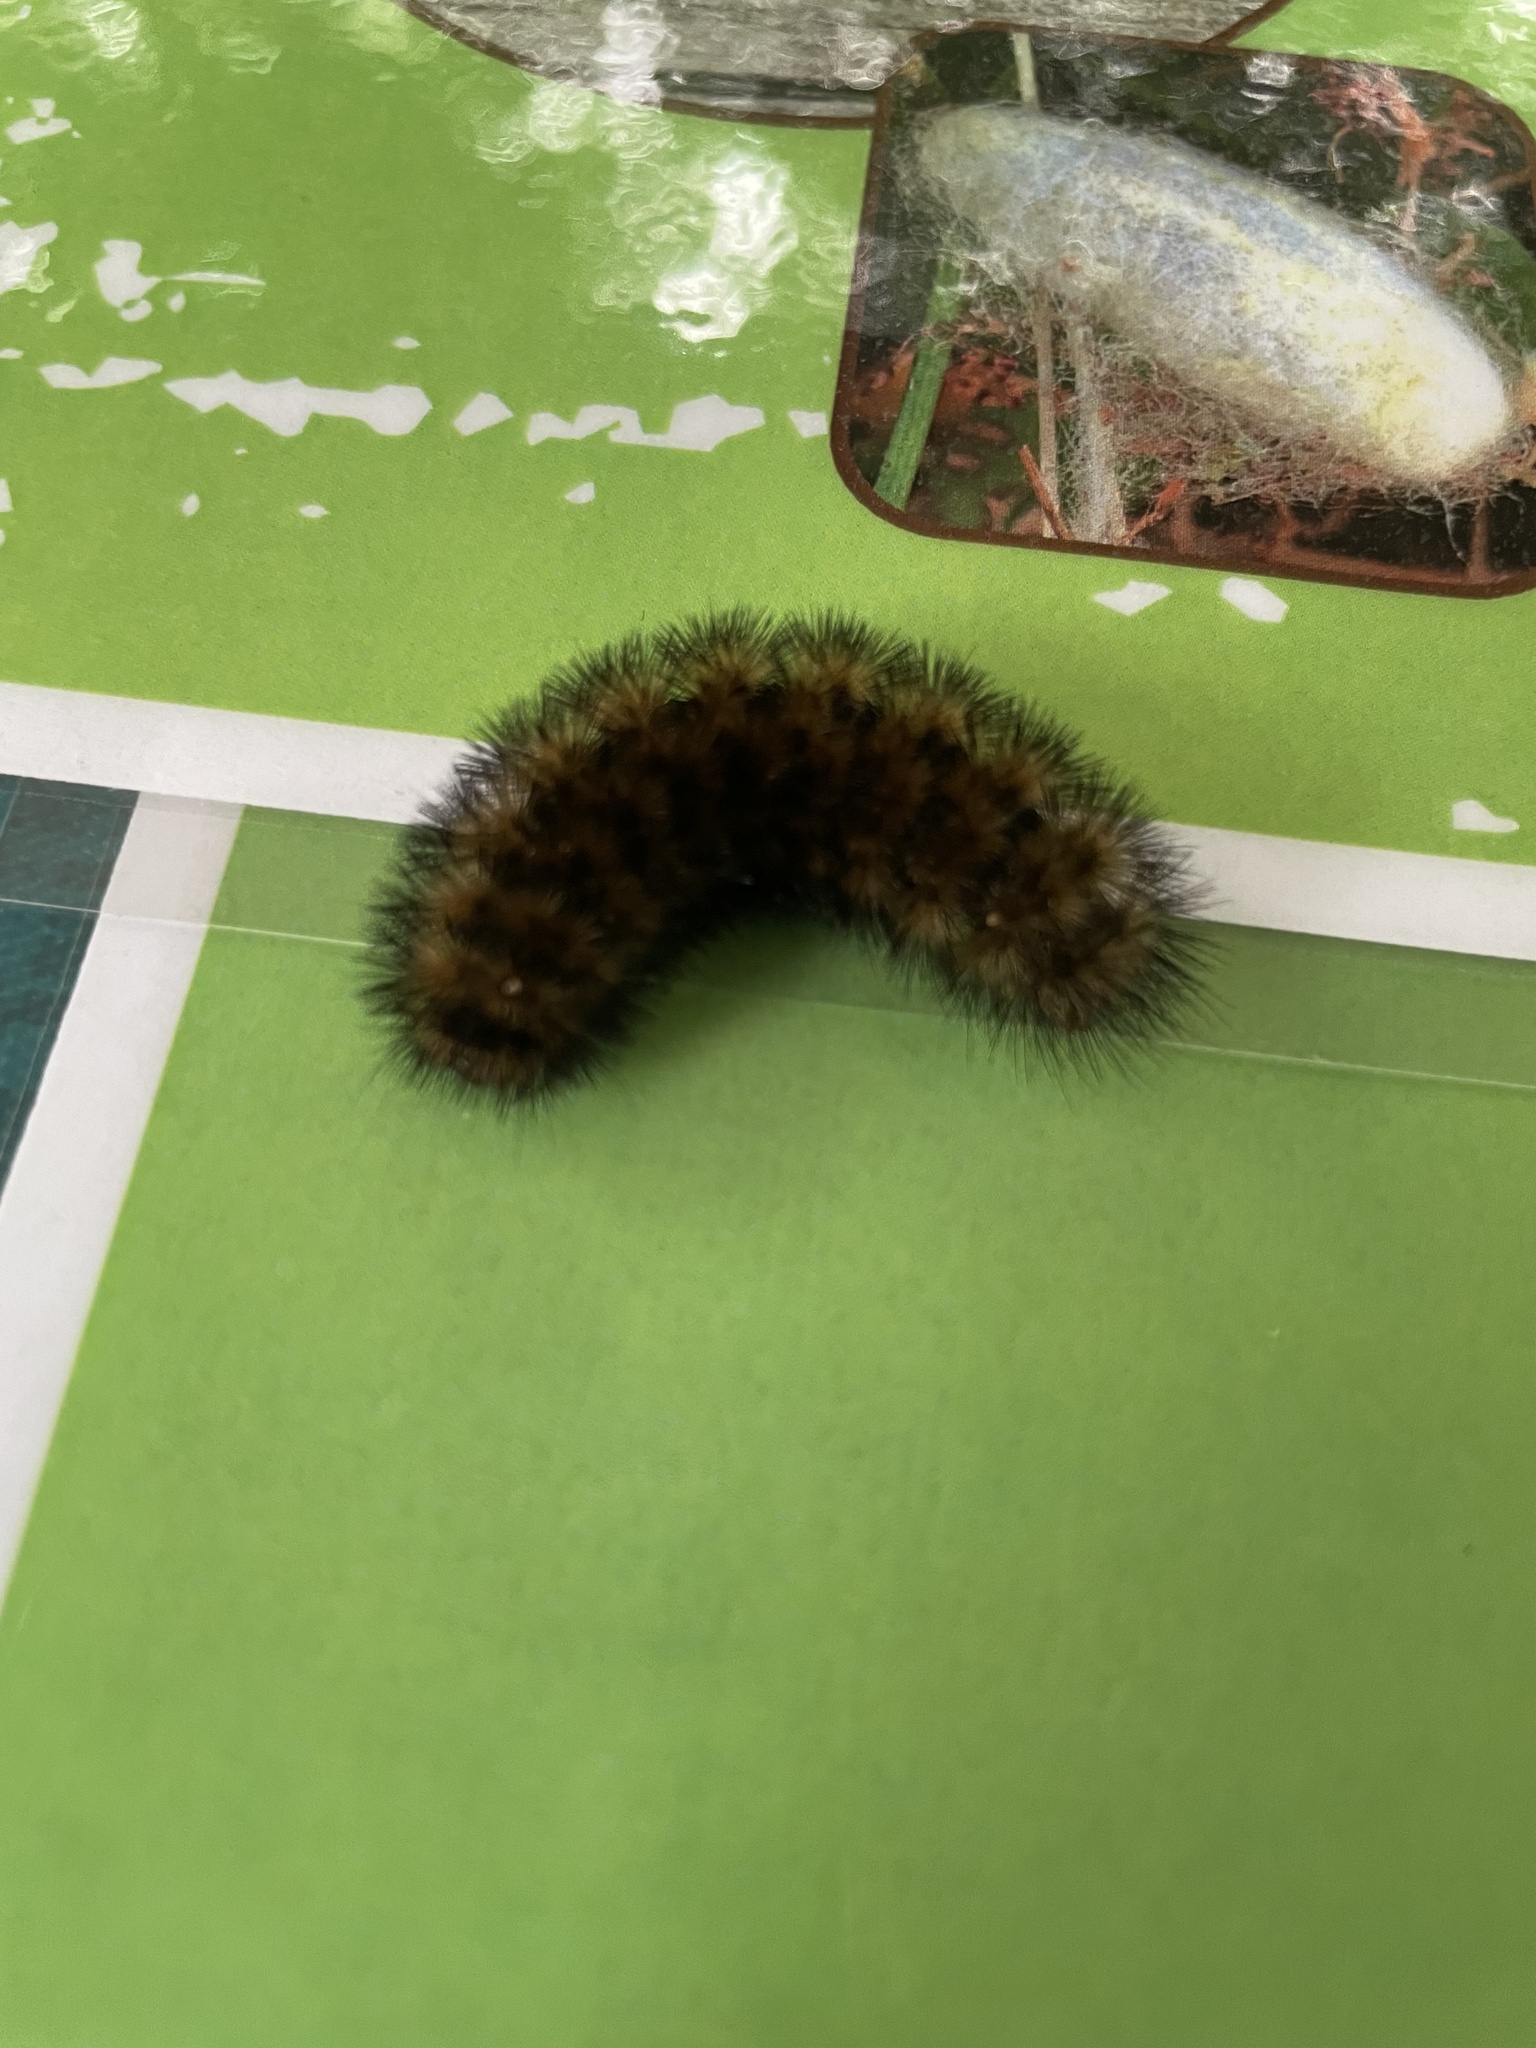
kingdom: Animalia
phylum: Arthropoda
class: Insecta
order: Lepidoptera
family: Erebidae
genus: Pyrrharctia
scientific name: Pyrrharctia isabella
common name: Isabella tiger moth
